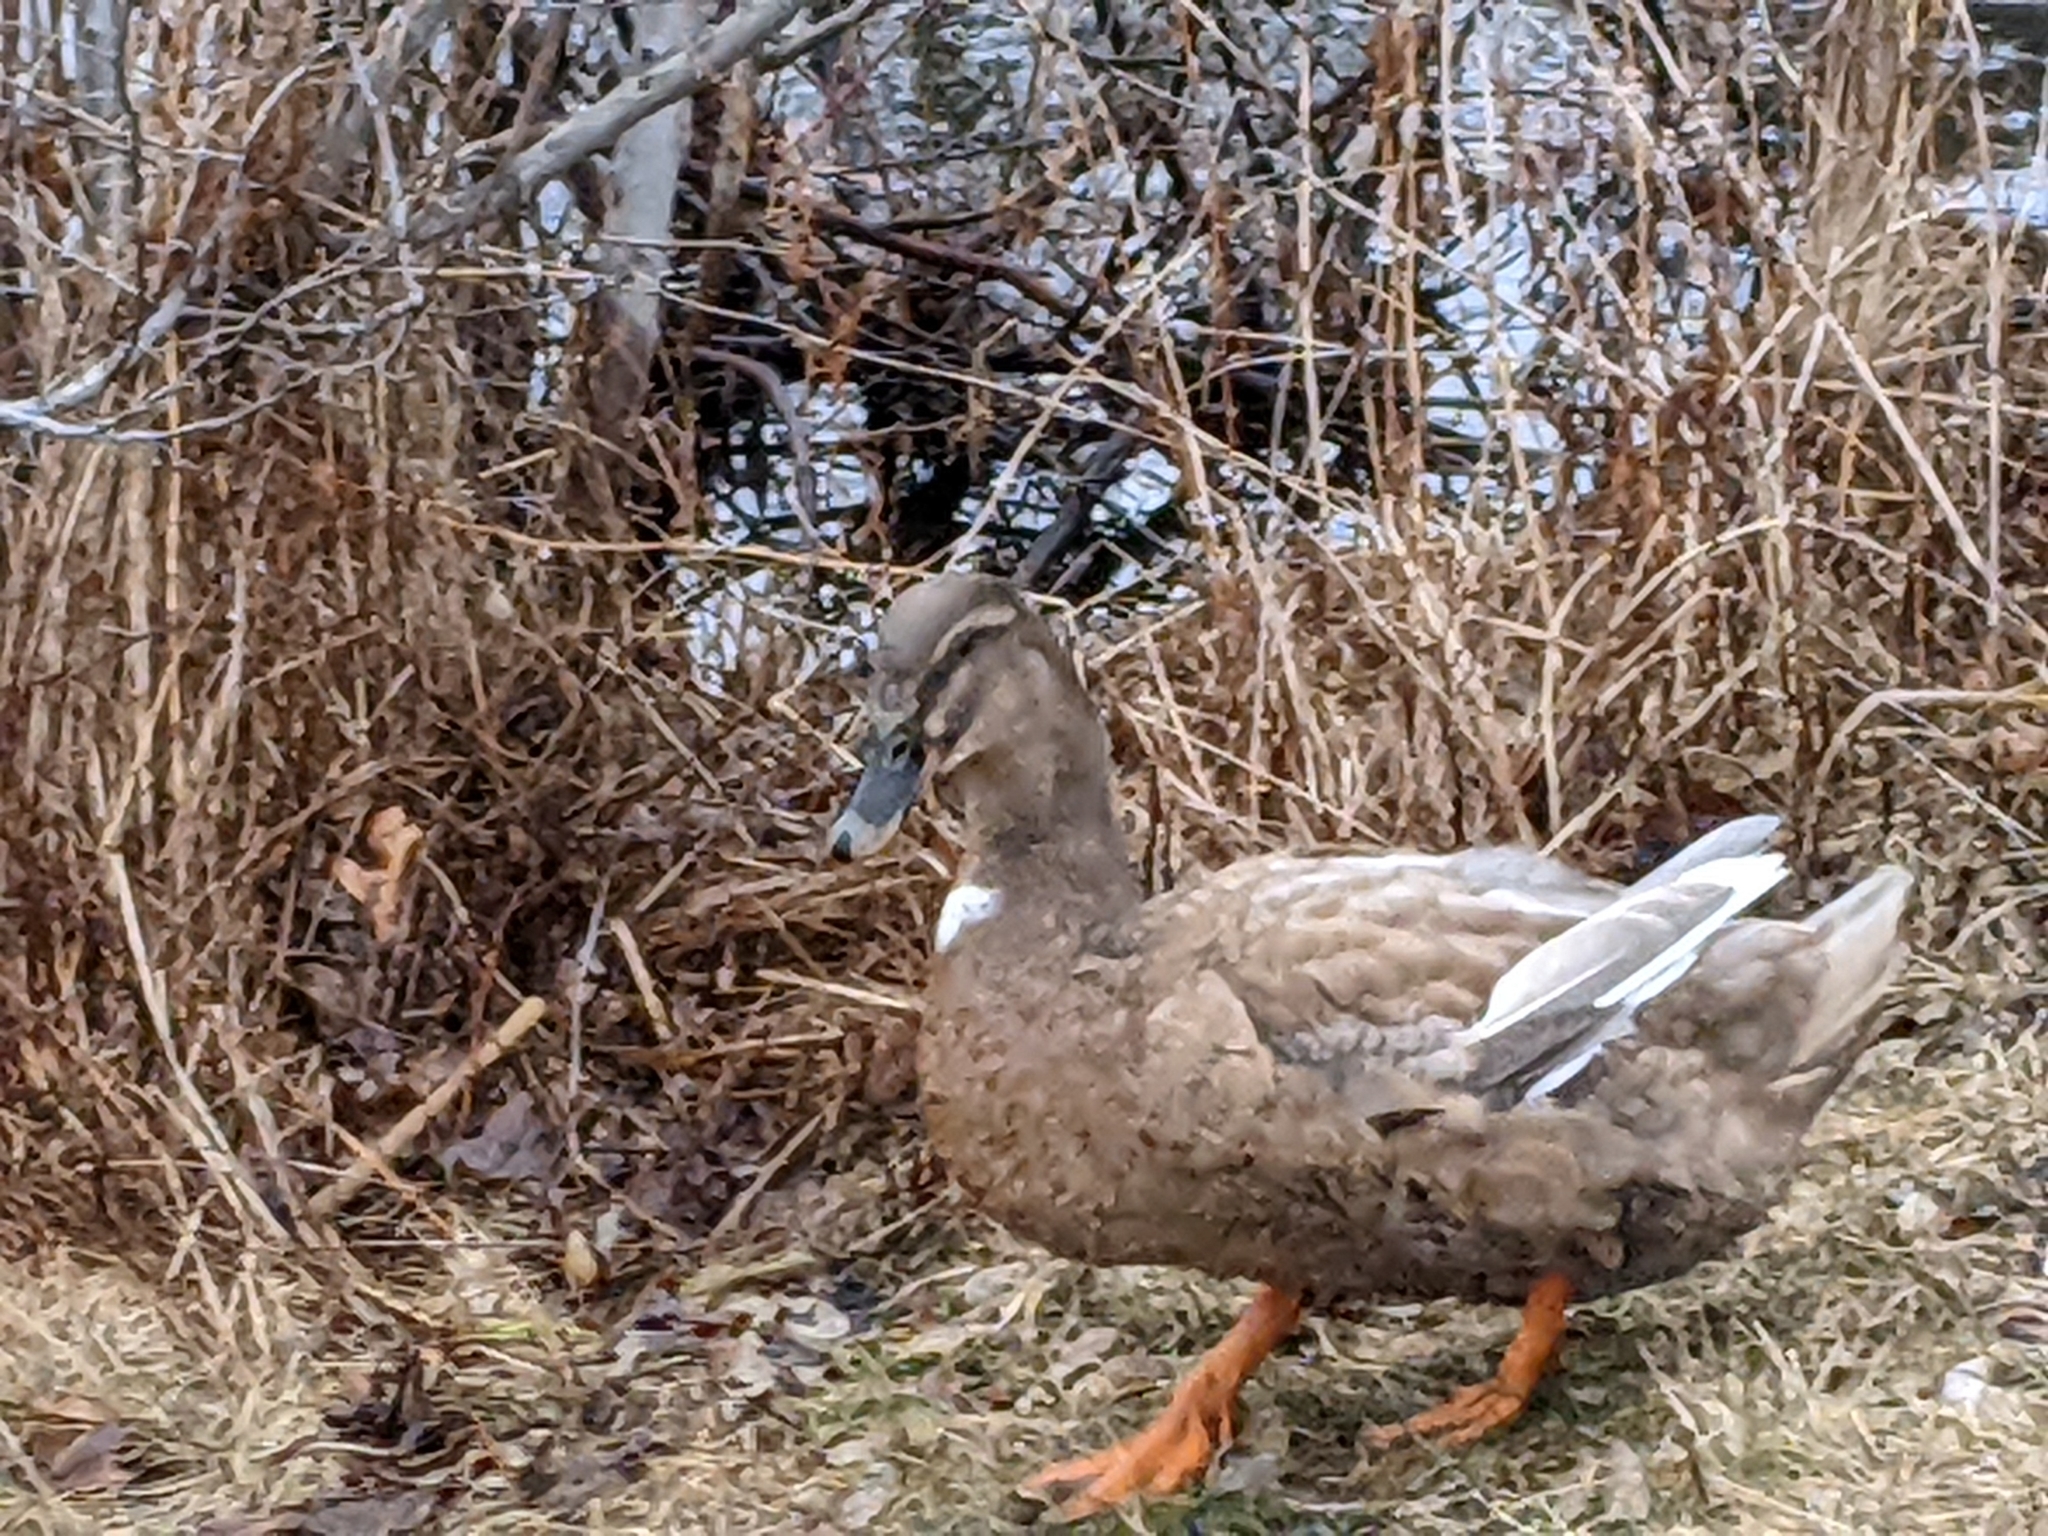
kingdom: Animalia
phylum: Chordata
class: Aves
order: Anseriformes
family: Anatidae
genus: Anas
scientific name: Anas platyrhynchos
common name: Mallard
